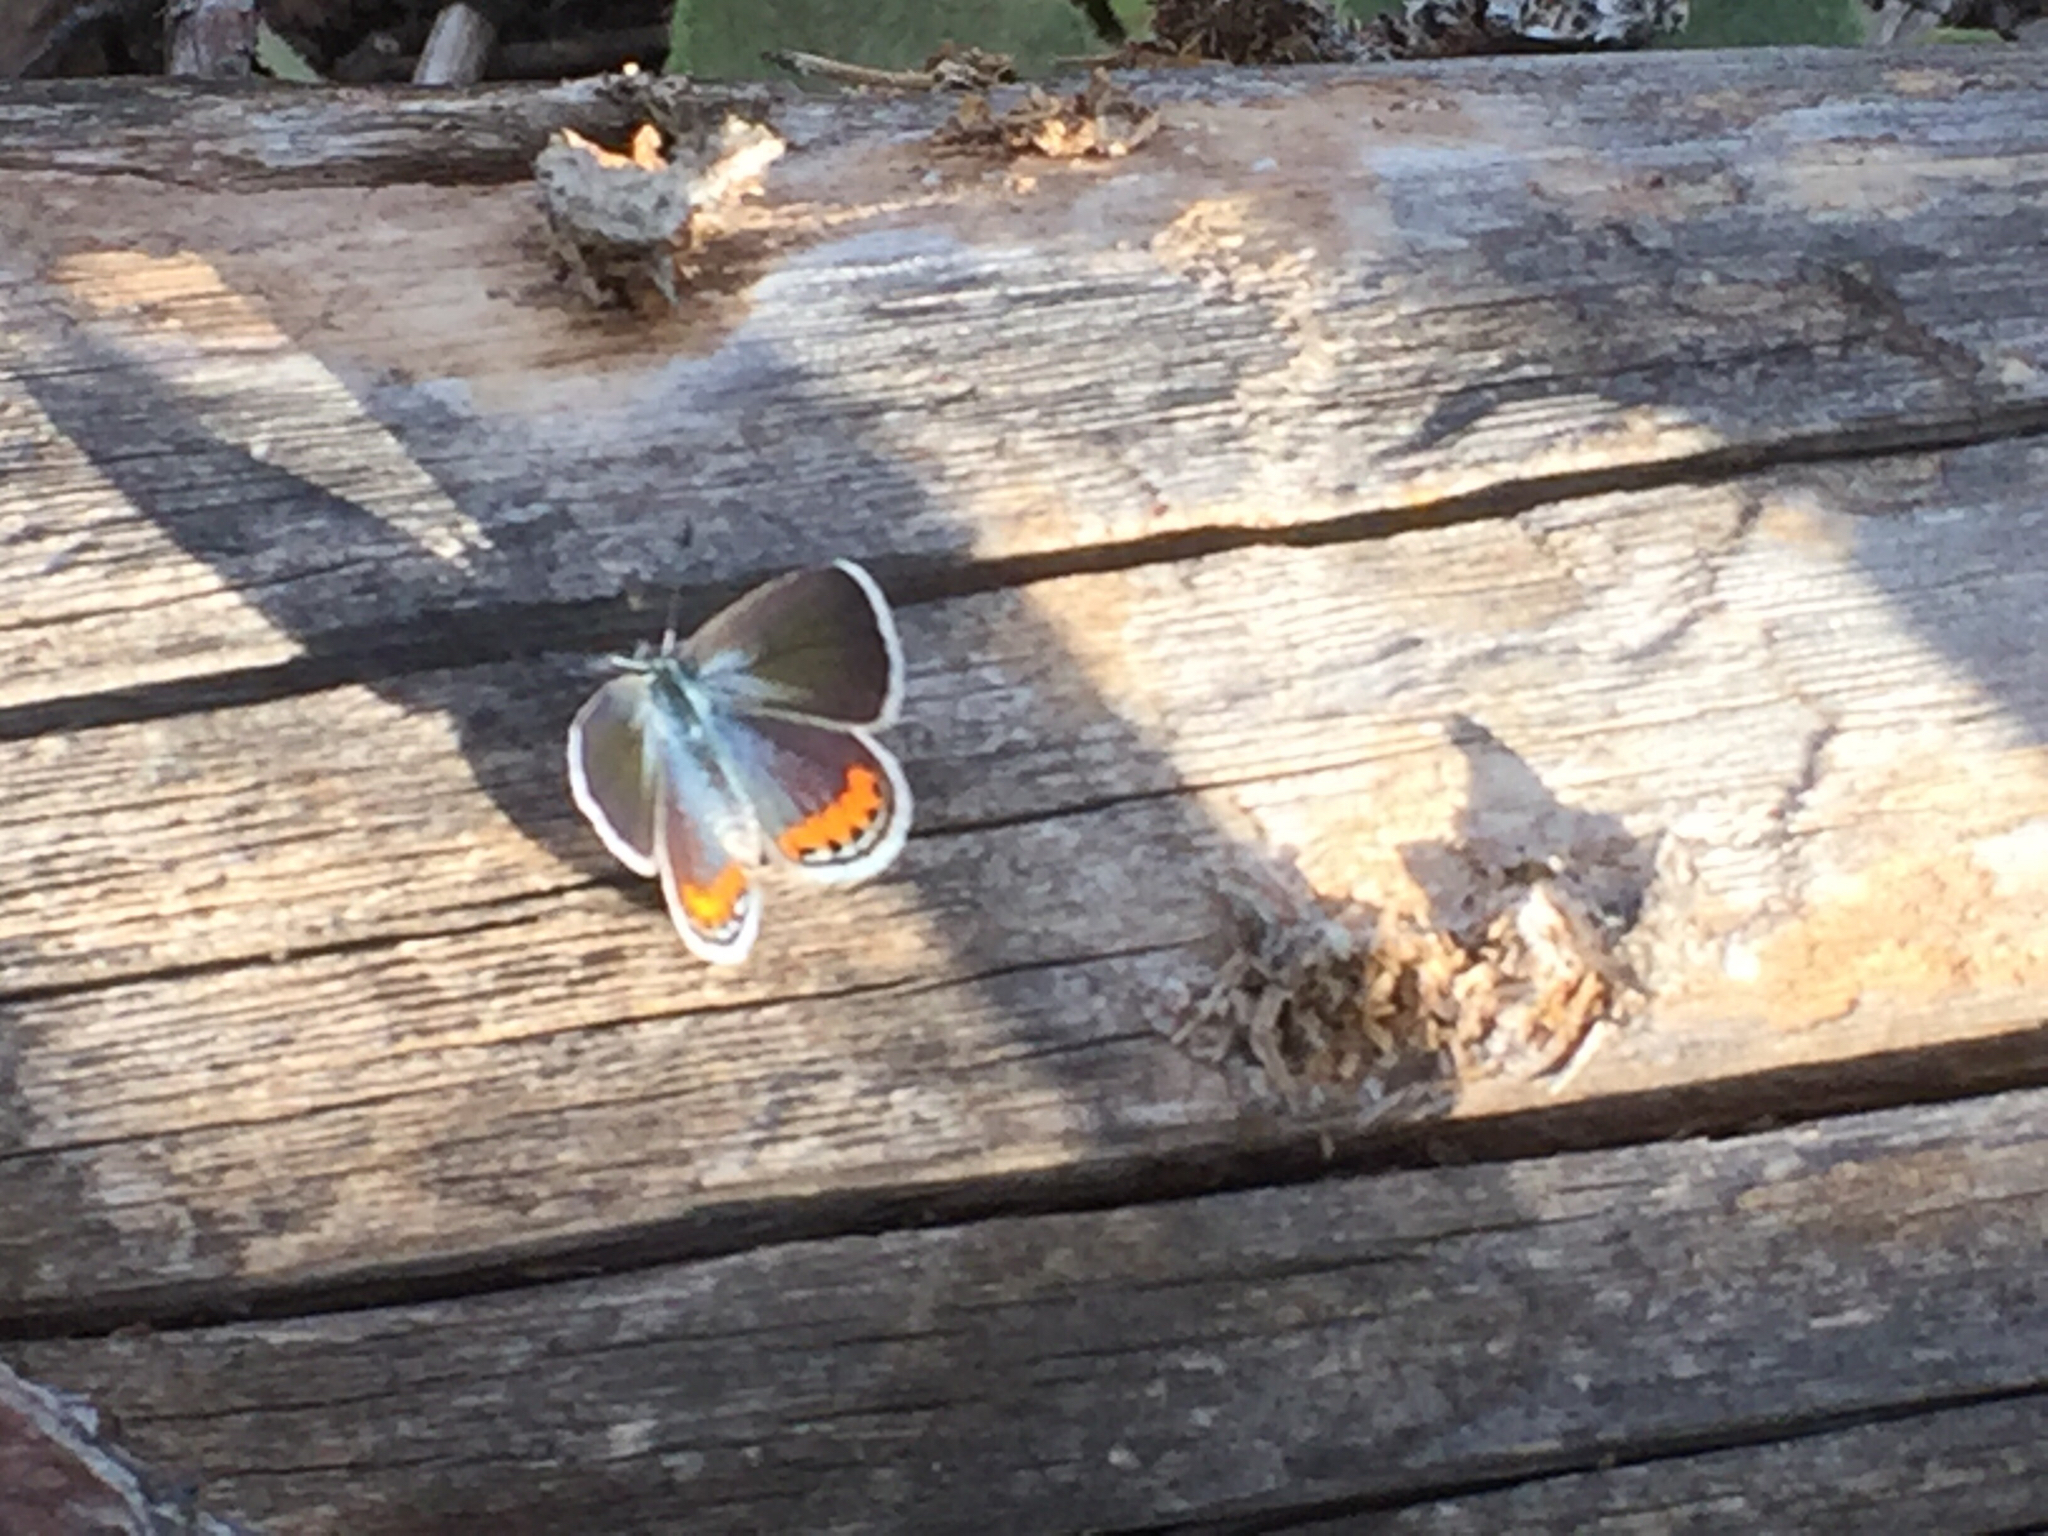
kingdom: Animalia
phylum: Arthropoda
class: Insecta
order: Lepidoptera
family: Lycaenidae
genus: Icaricia
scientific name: Icaricia lupini
